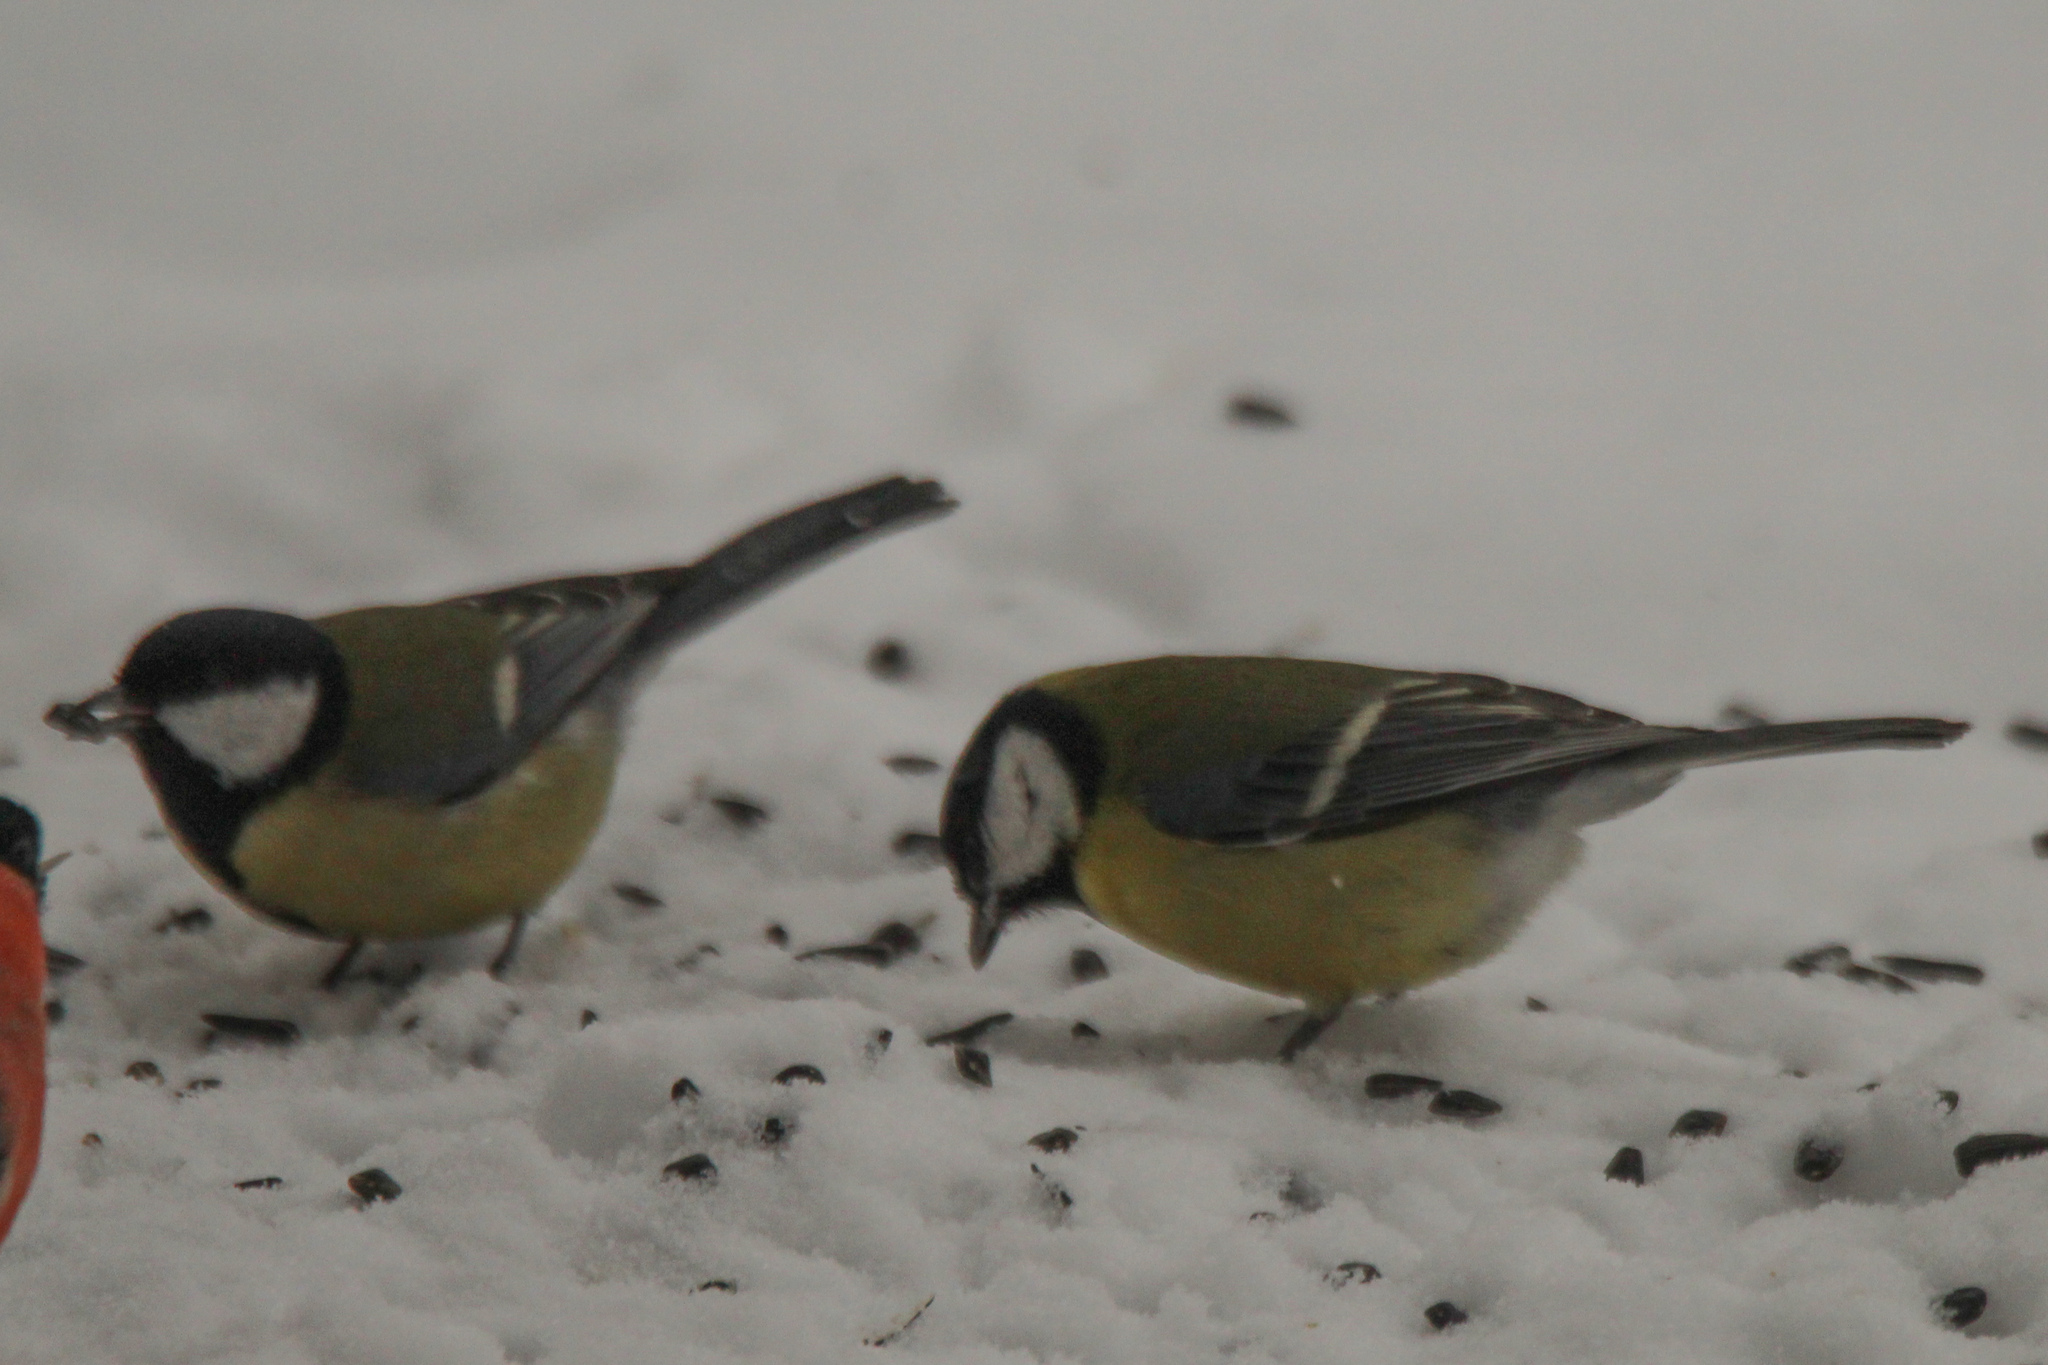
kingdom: Animalia
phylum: Chordata
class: Aves
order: Passeriformes
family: Paridae
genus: Parus
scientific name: Parus major
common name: Great tit
